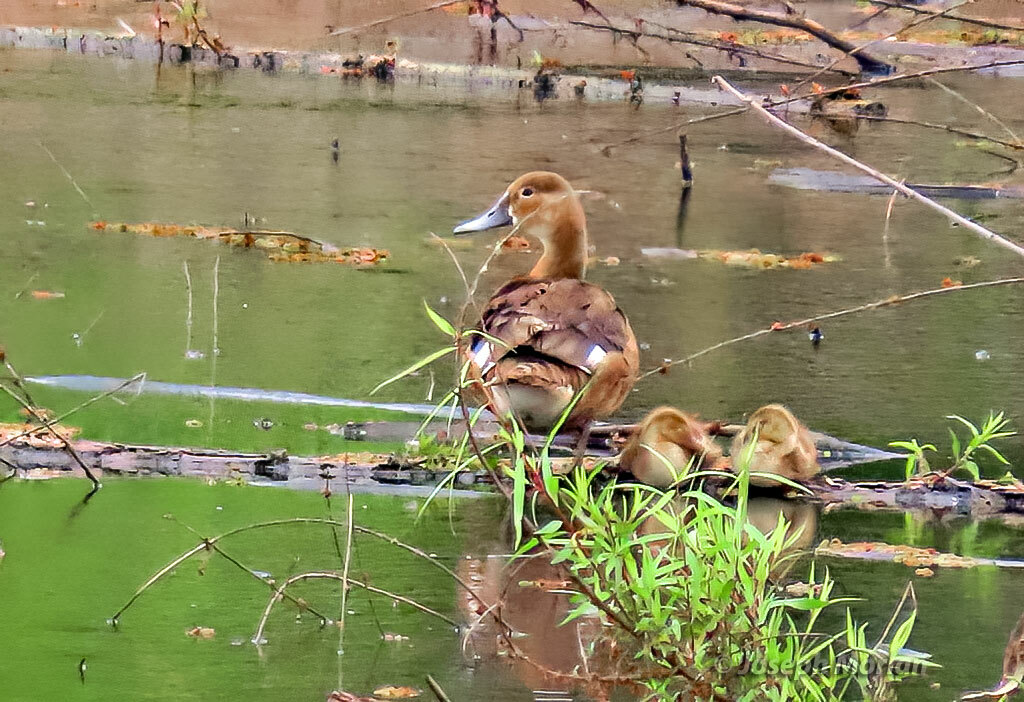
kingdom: Animalia
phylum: Chordata
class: Aves
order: Anseriformes
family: Anatidae
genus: Netta
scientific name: Netta peposaca
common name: Rosy-billed pochard
